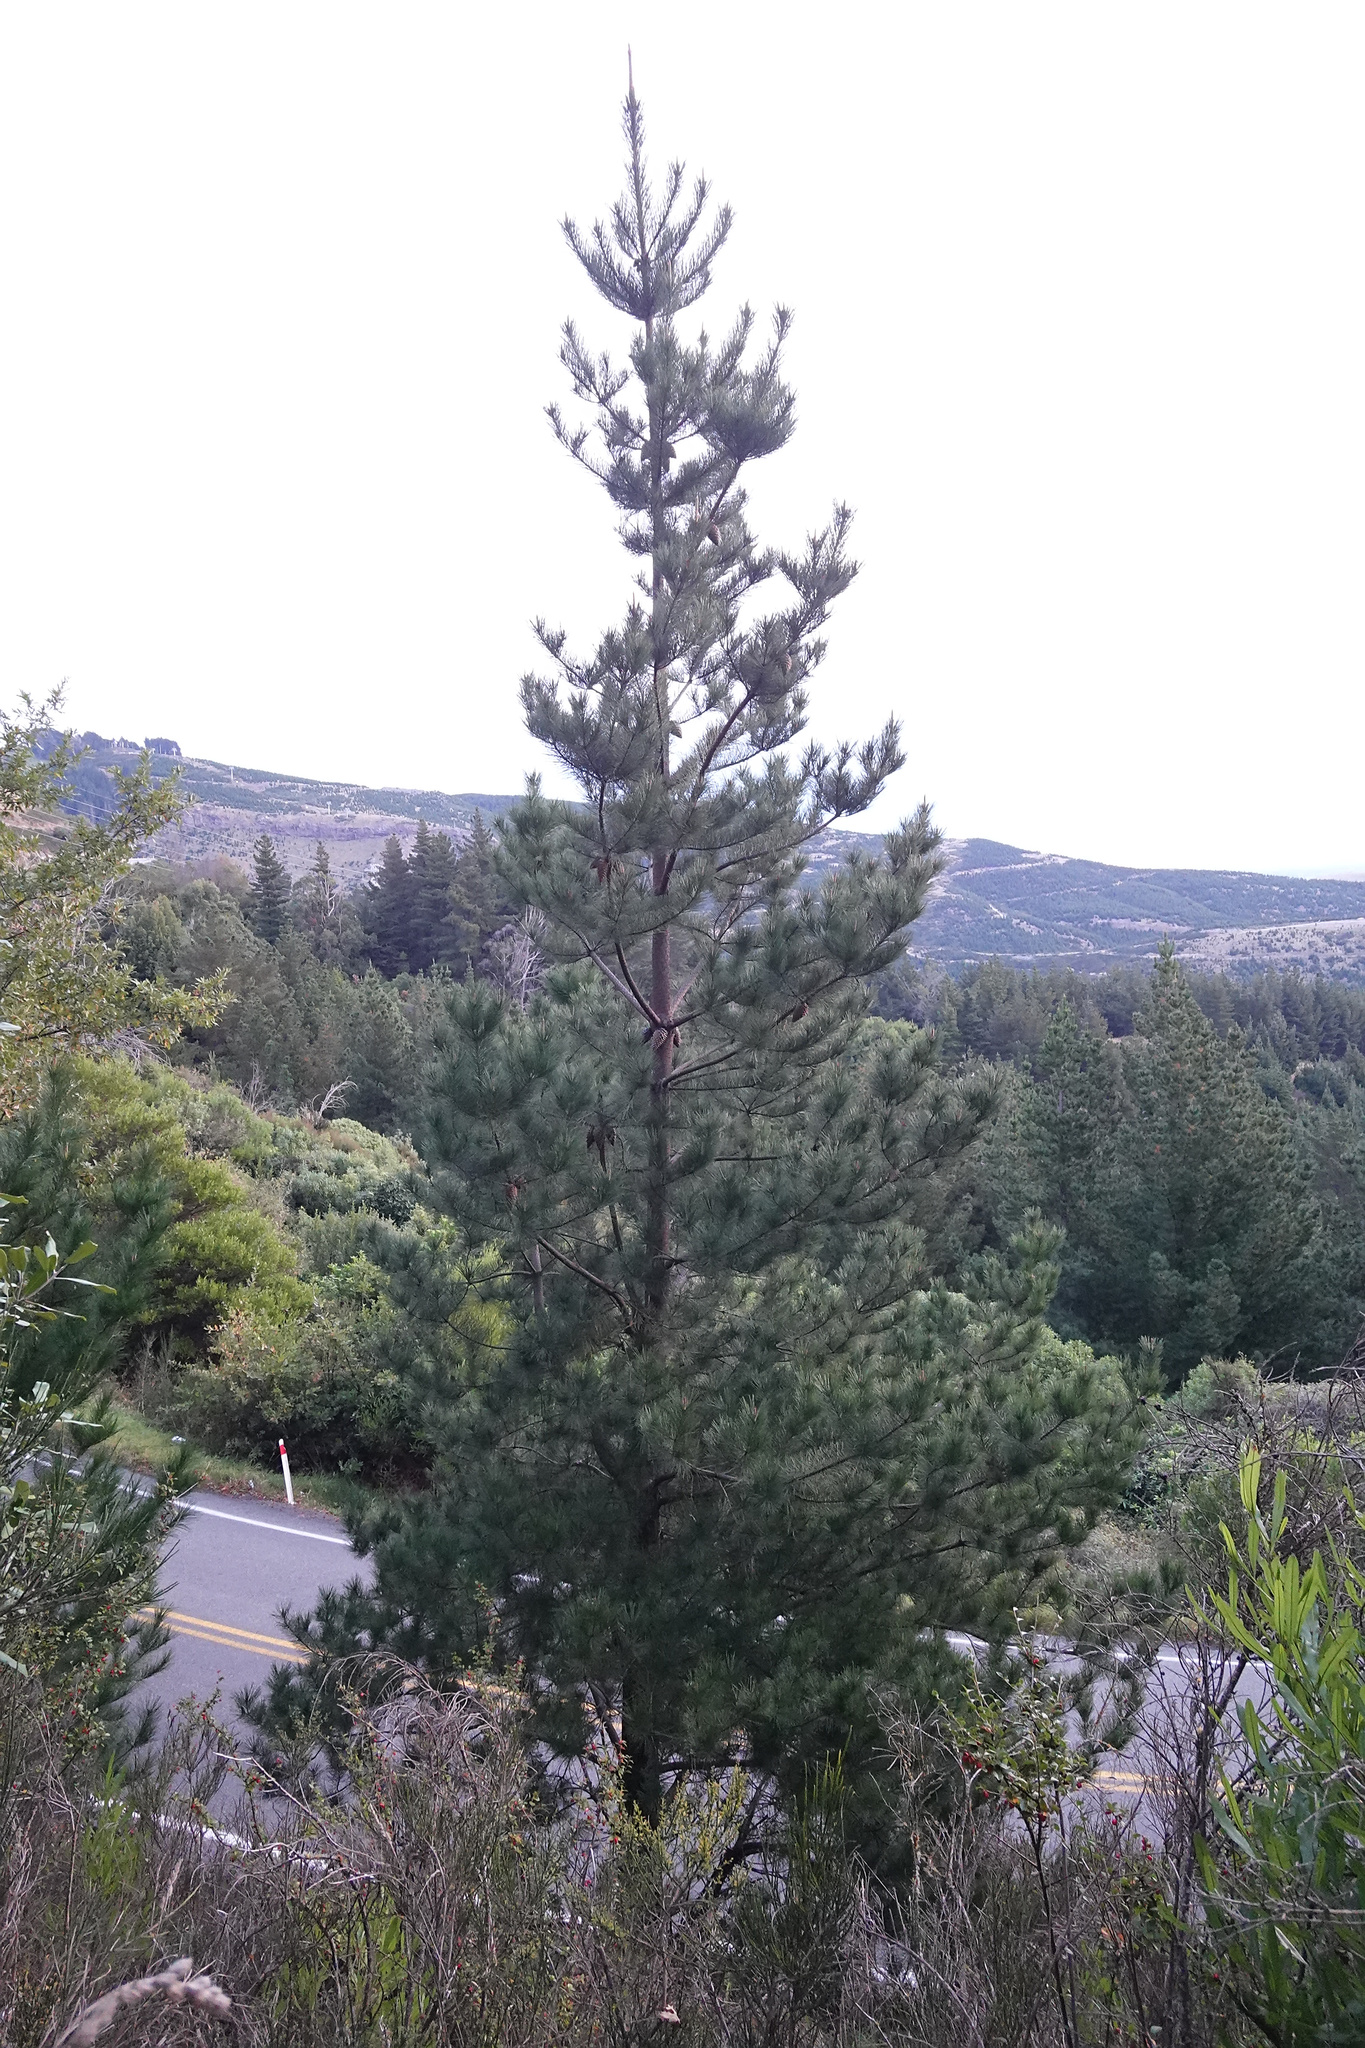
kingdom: Plantae
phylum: Tracheophyta
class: Pinopsida
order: Pinales
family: Pinaceae
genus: Pinus
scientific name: Pinus radiata
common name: Monterey pine
